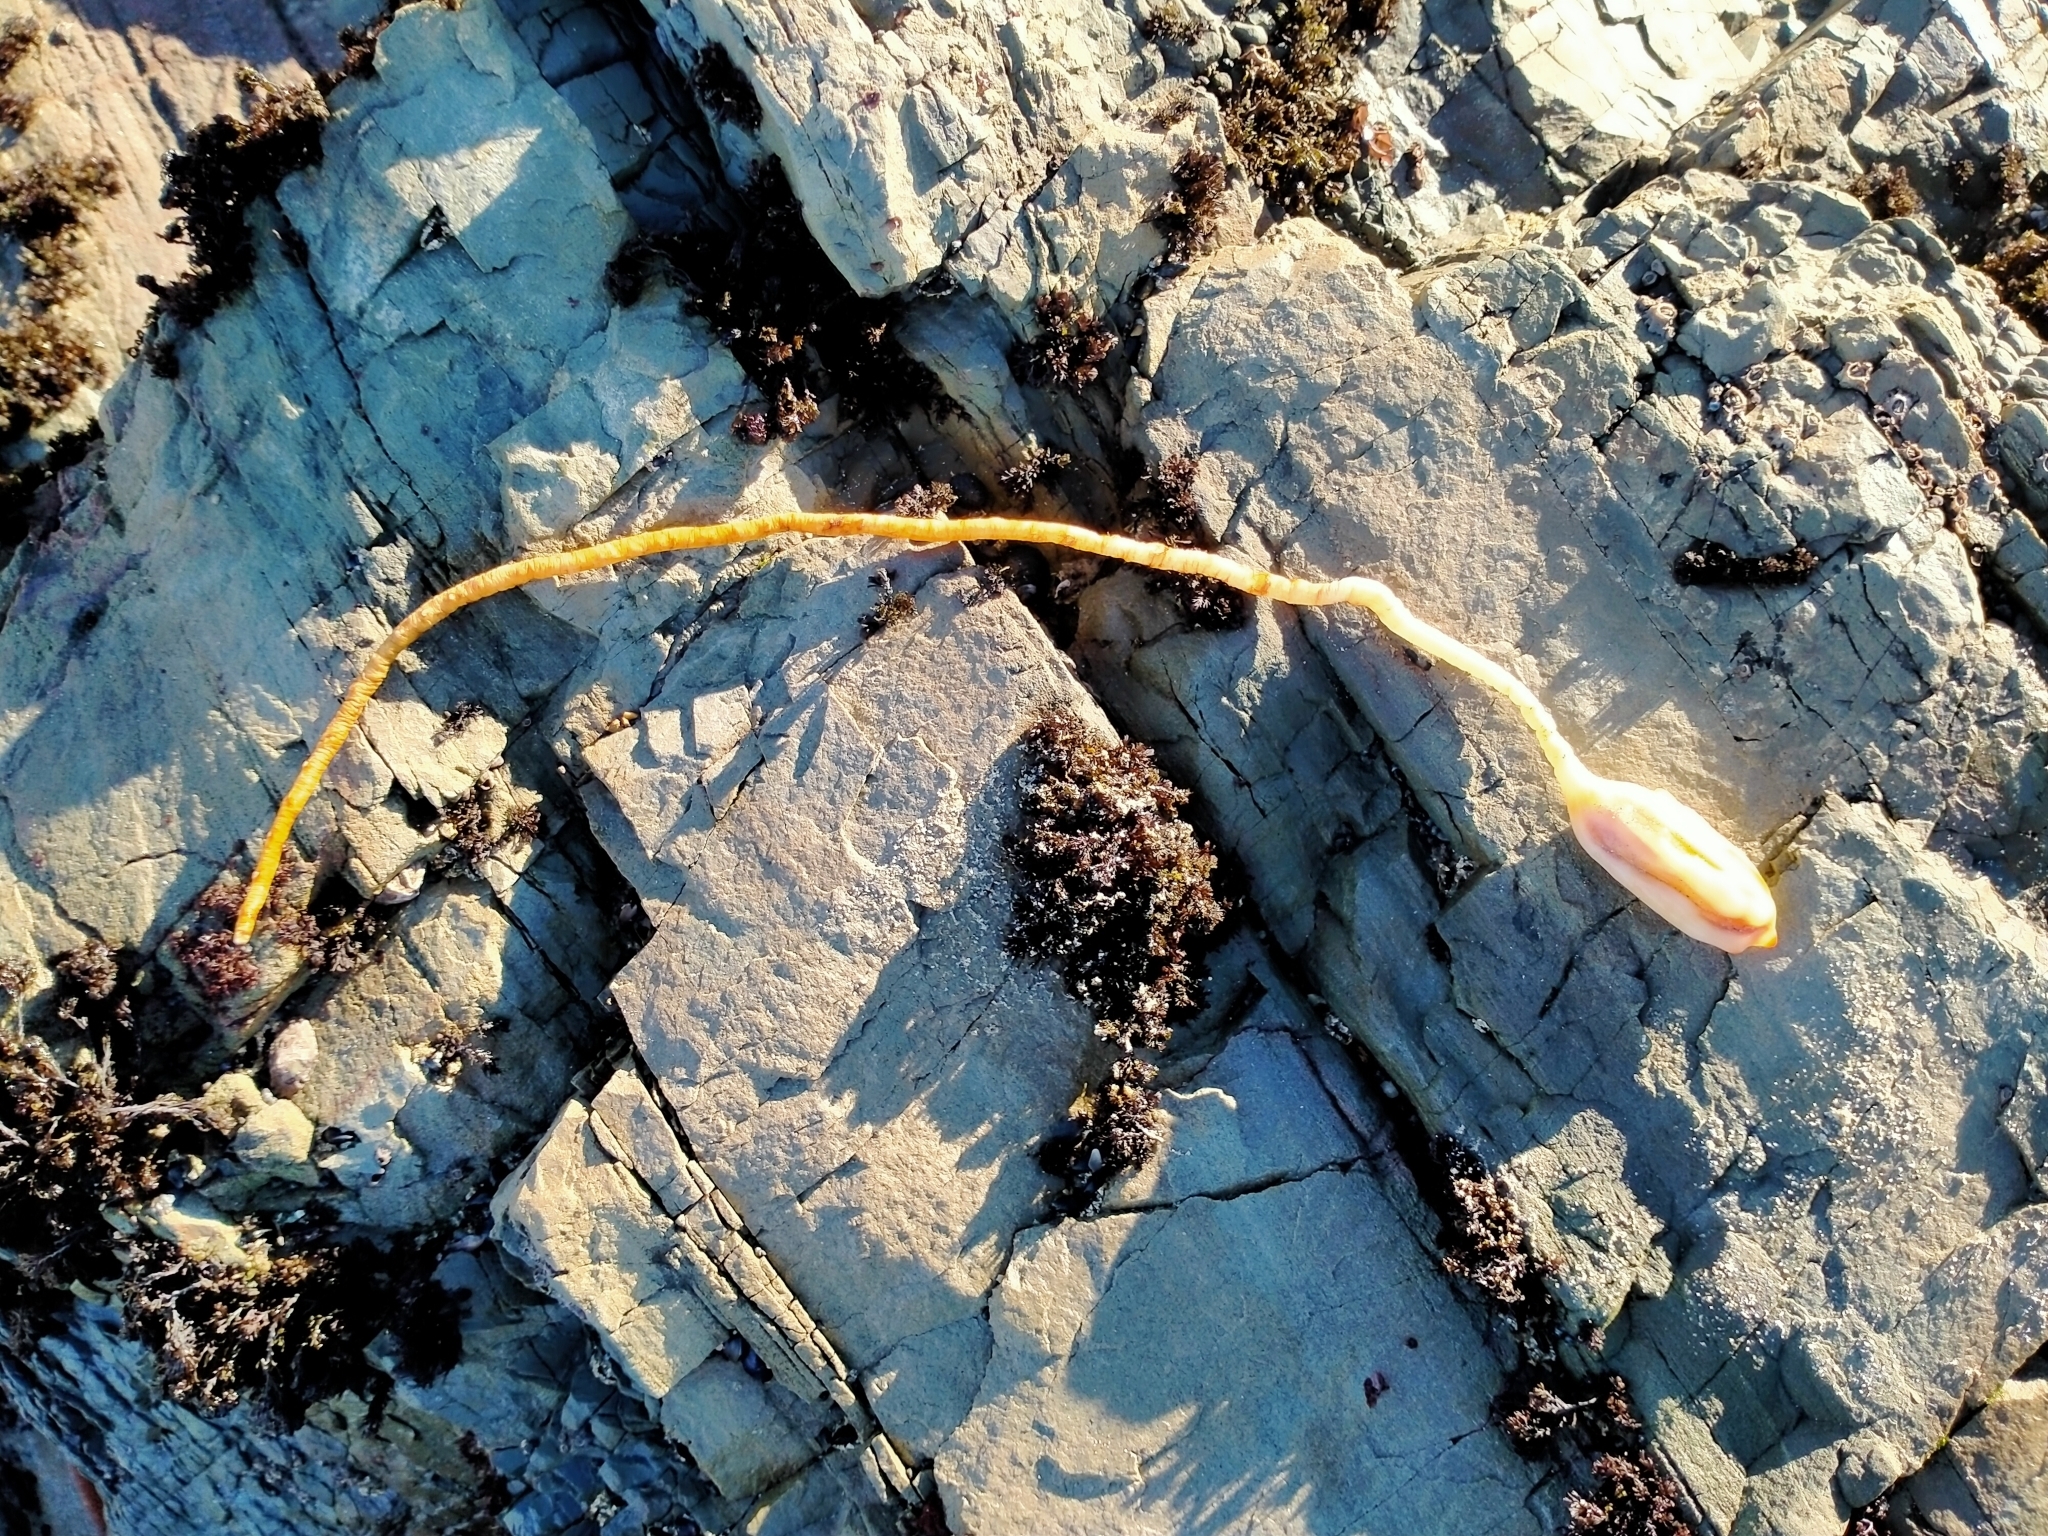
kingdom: Animalia
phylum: Chordata
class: Ascidiacea
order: Stolidobranchia
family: Pyuridae
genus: Pyura
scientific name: Pyura pachydermatina
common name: Sea tulip
